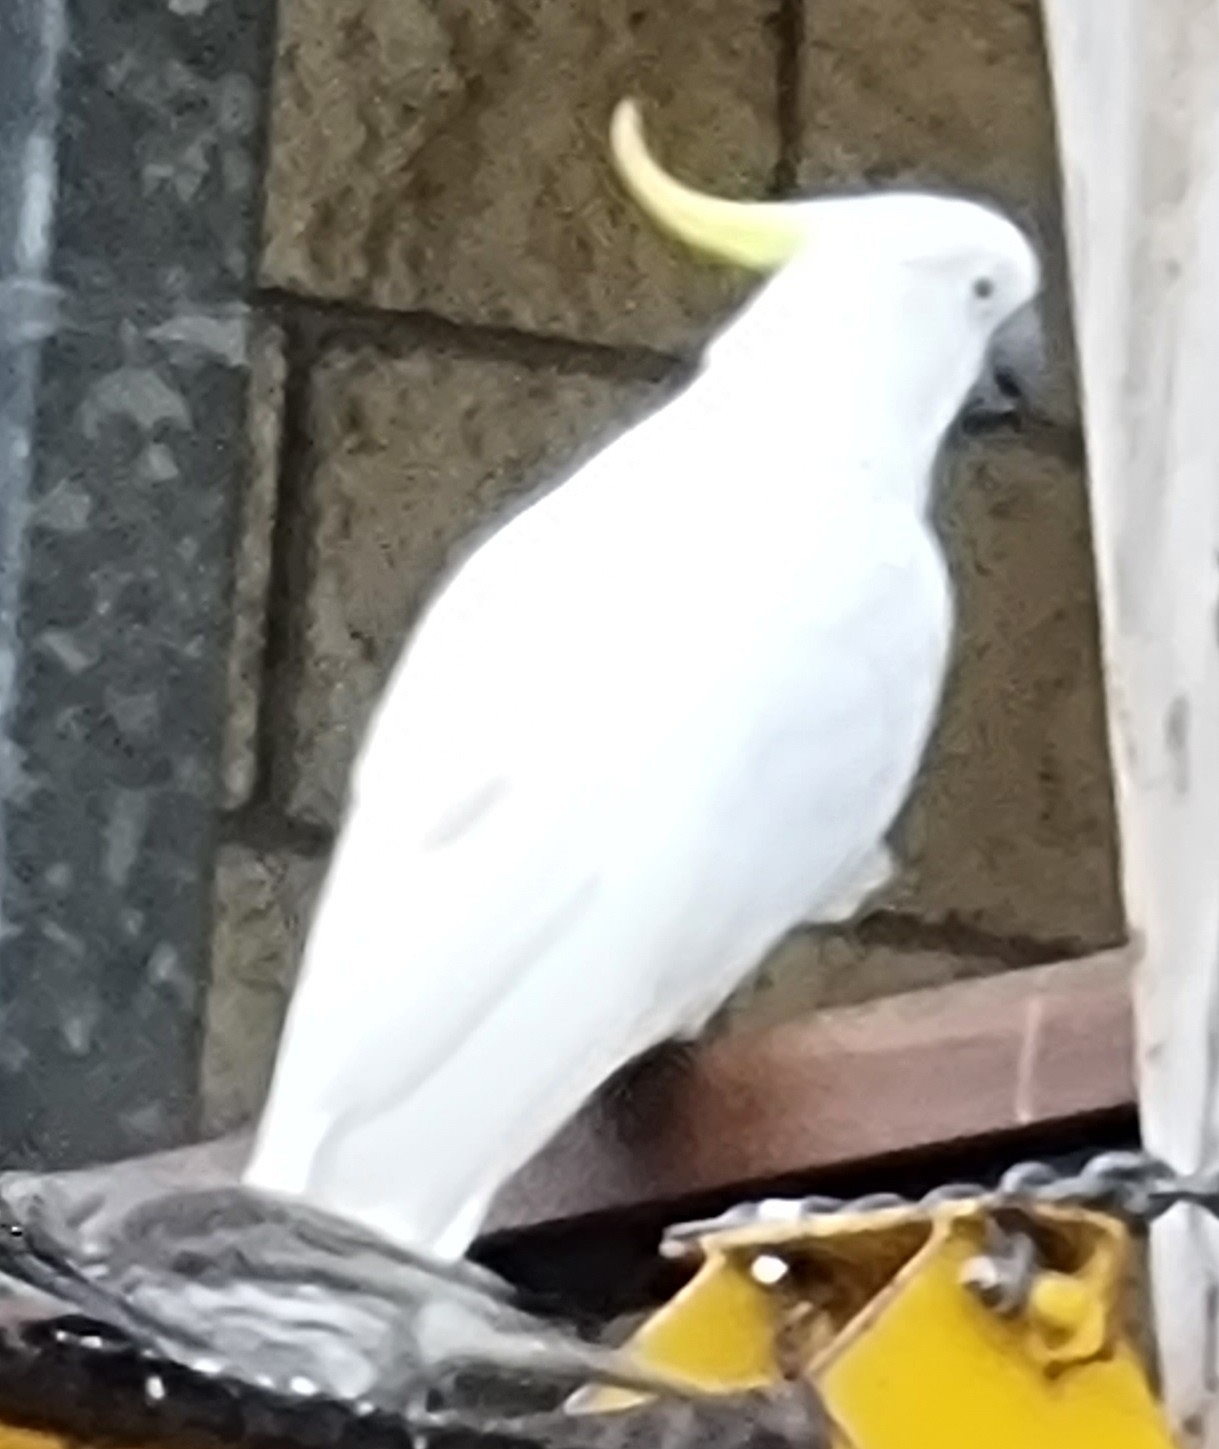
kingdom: Animalia
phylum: Chordata
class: Aves
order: Psittaciformes
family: Psittacidae
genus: Cacatua
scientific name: Cacatua galerita
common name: Sulphur-crested cockatoo
